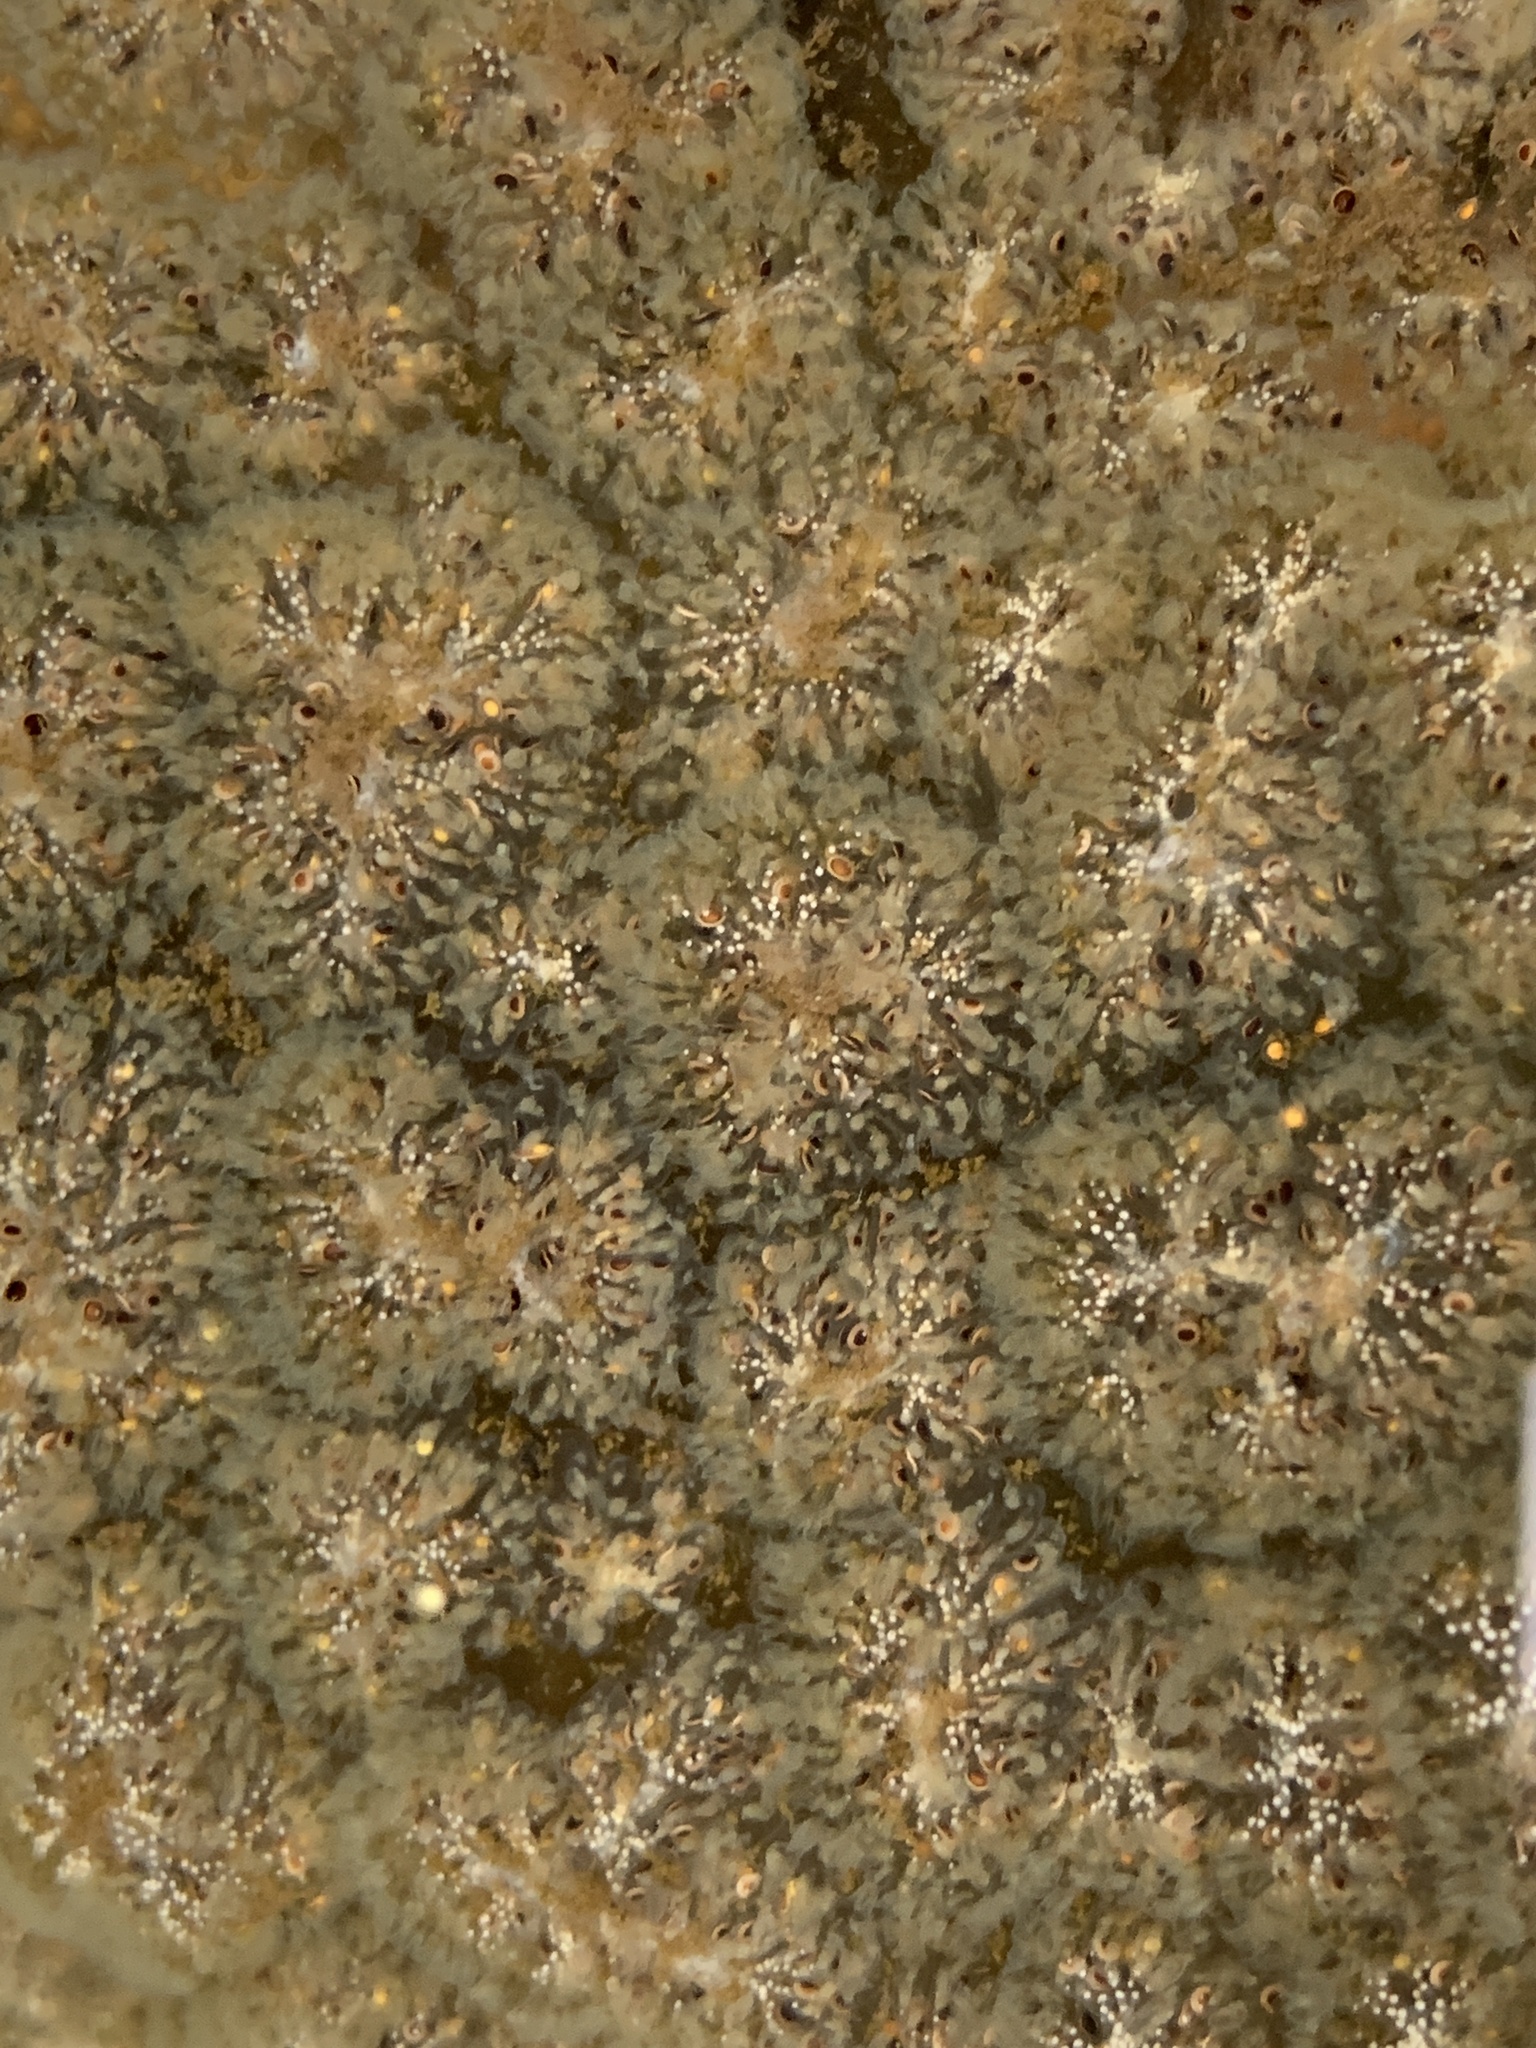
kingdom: Animalia
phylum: Bryozoa
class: Phylactolaemata
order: Plumatellida
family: Pectinatellidae
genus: Pectinatella
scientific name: Pectinatella magnifica
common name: Magnificent bryozoan
